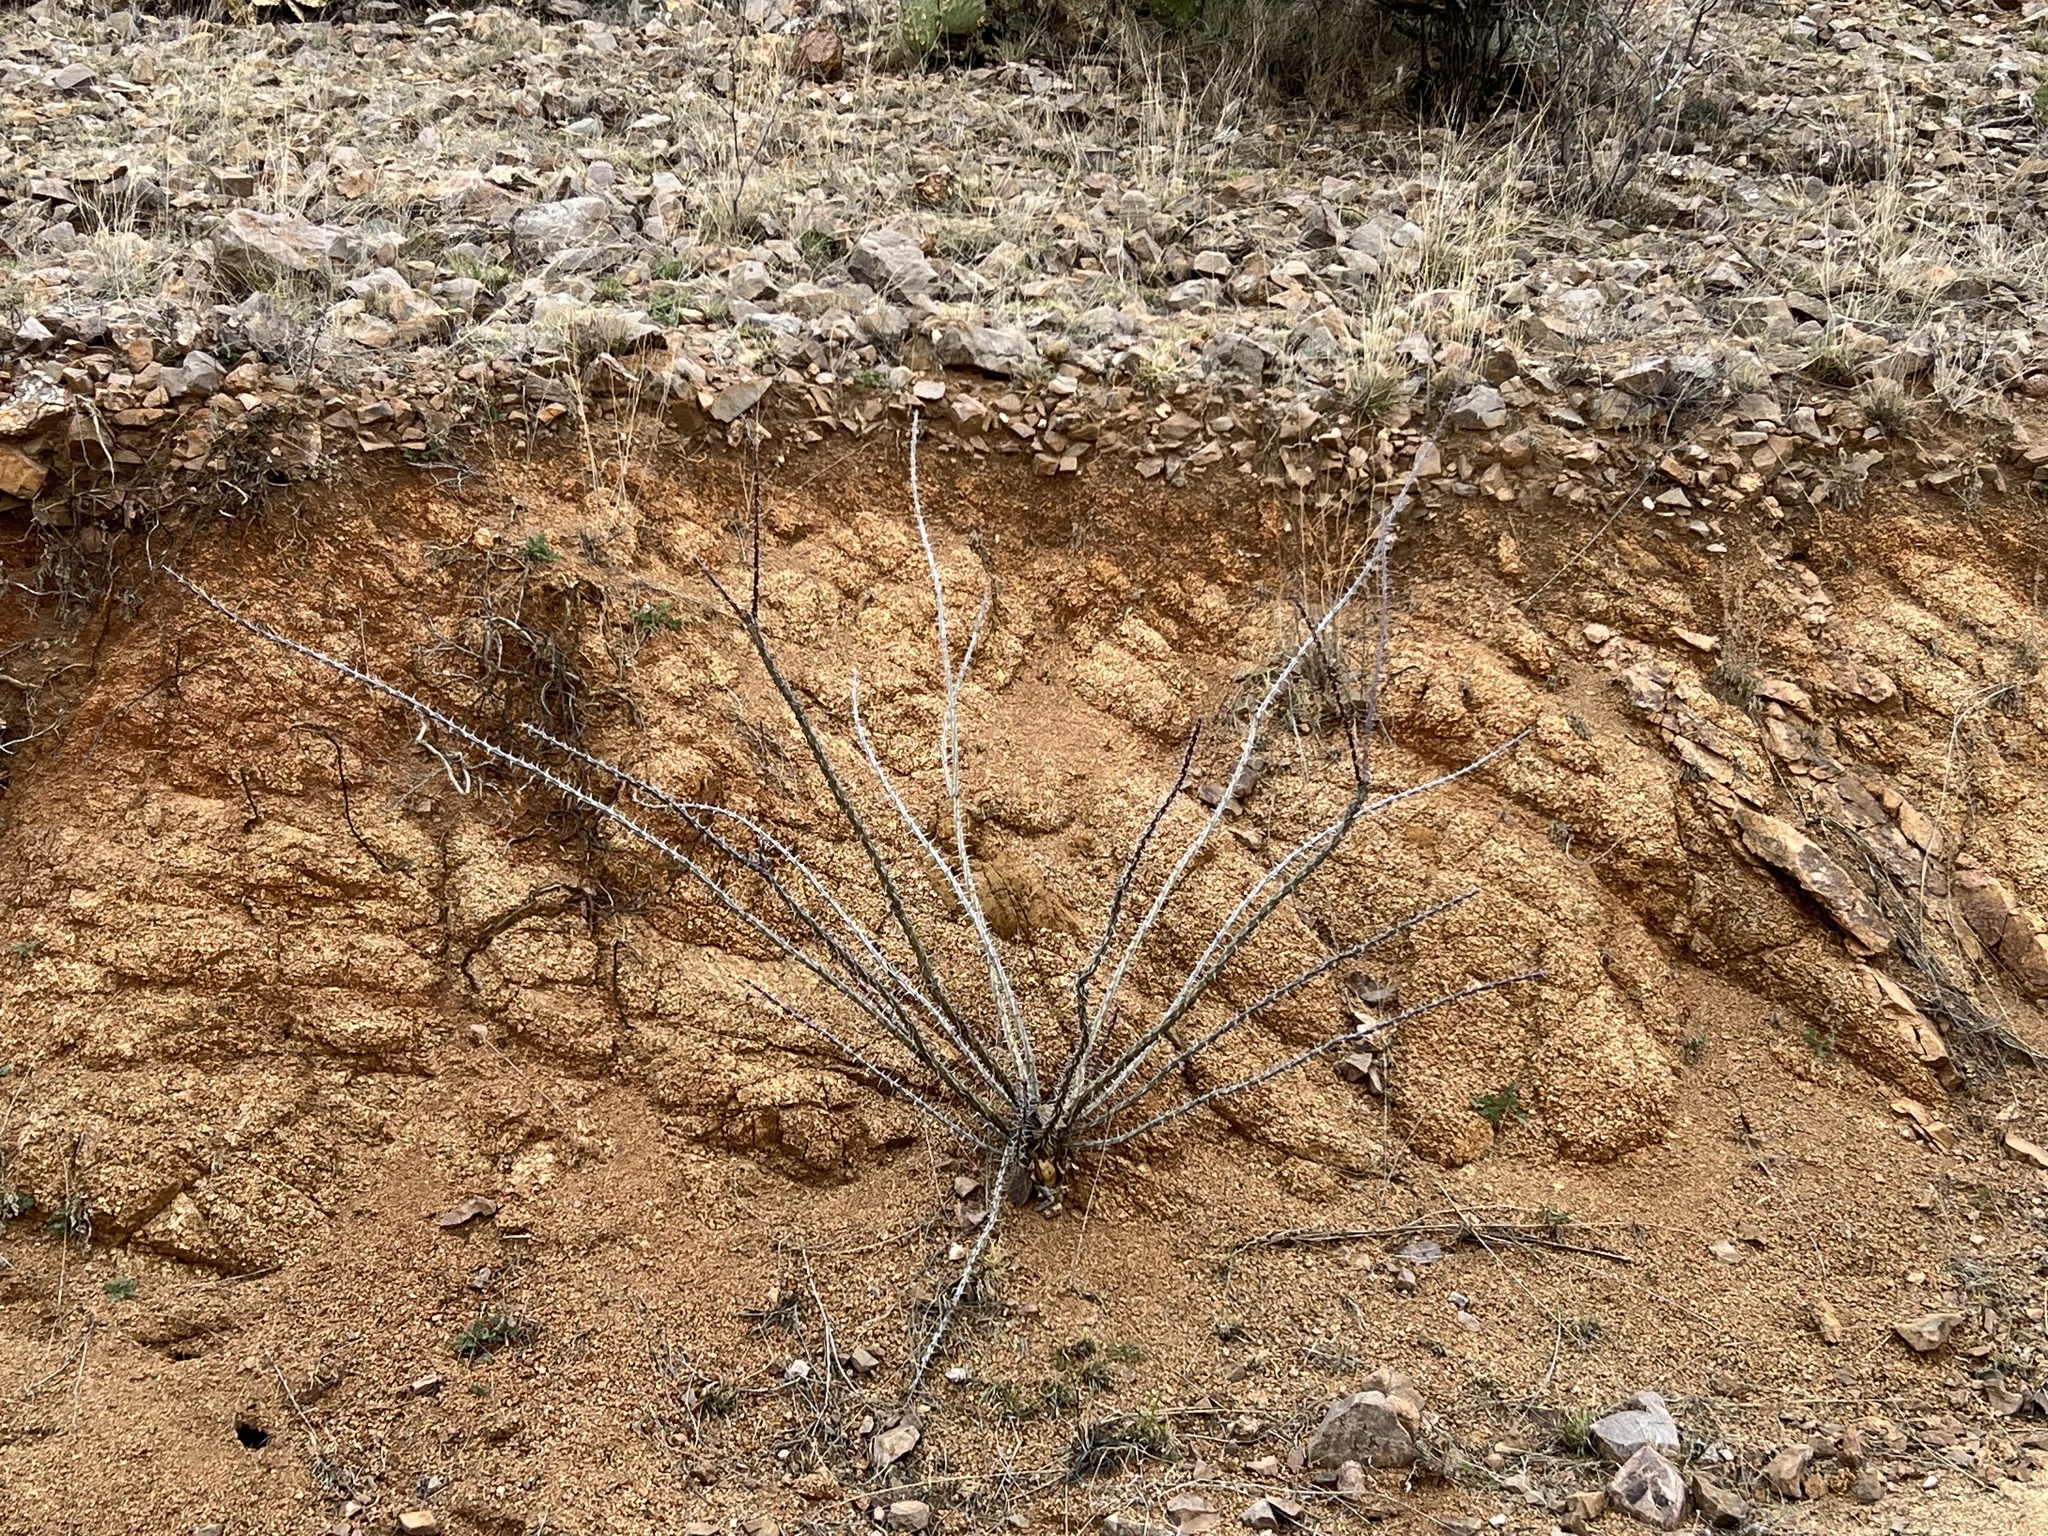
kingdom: Plantae
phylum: Tracheophyta
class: Magnoliopsida
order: Ericales
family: Fouquieriaceae
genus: Fouquieria
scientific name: Fouquieria splendens
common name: Vine-cactus
